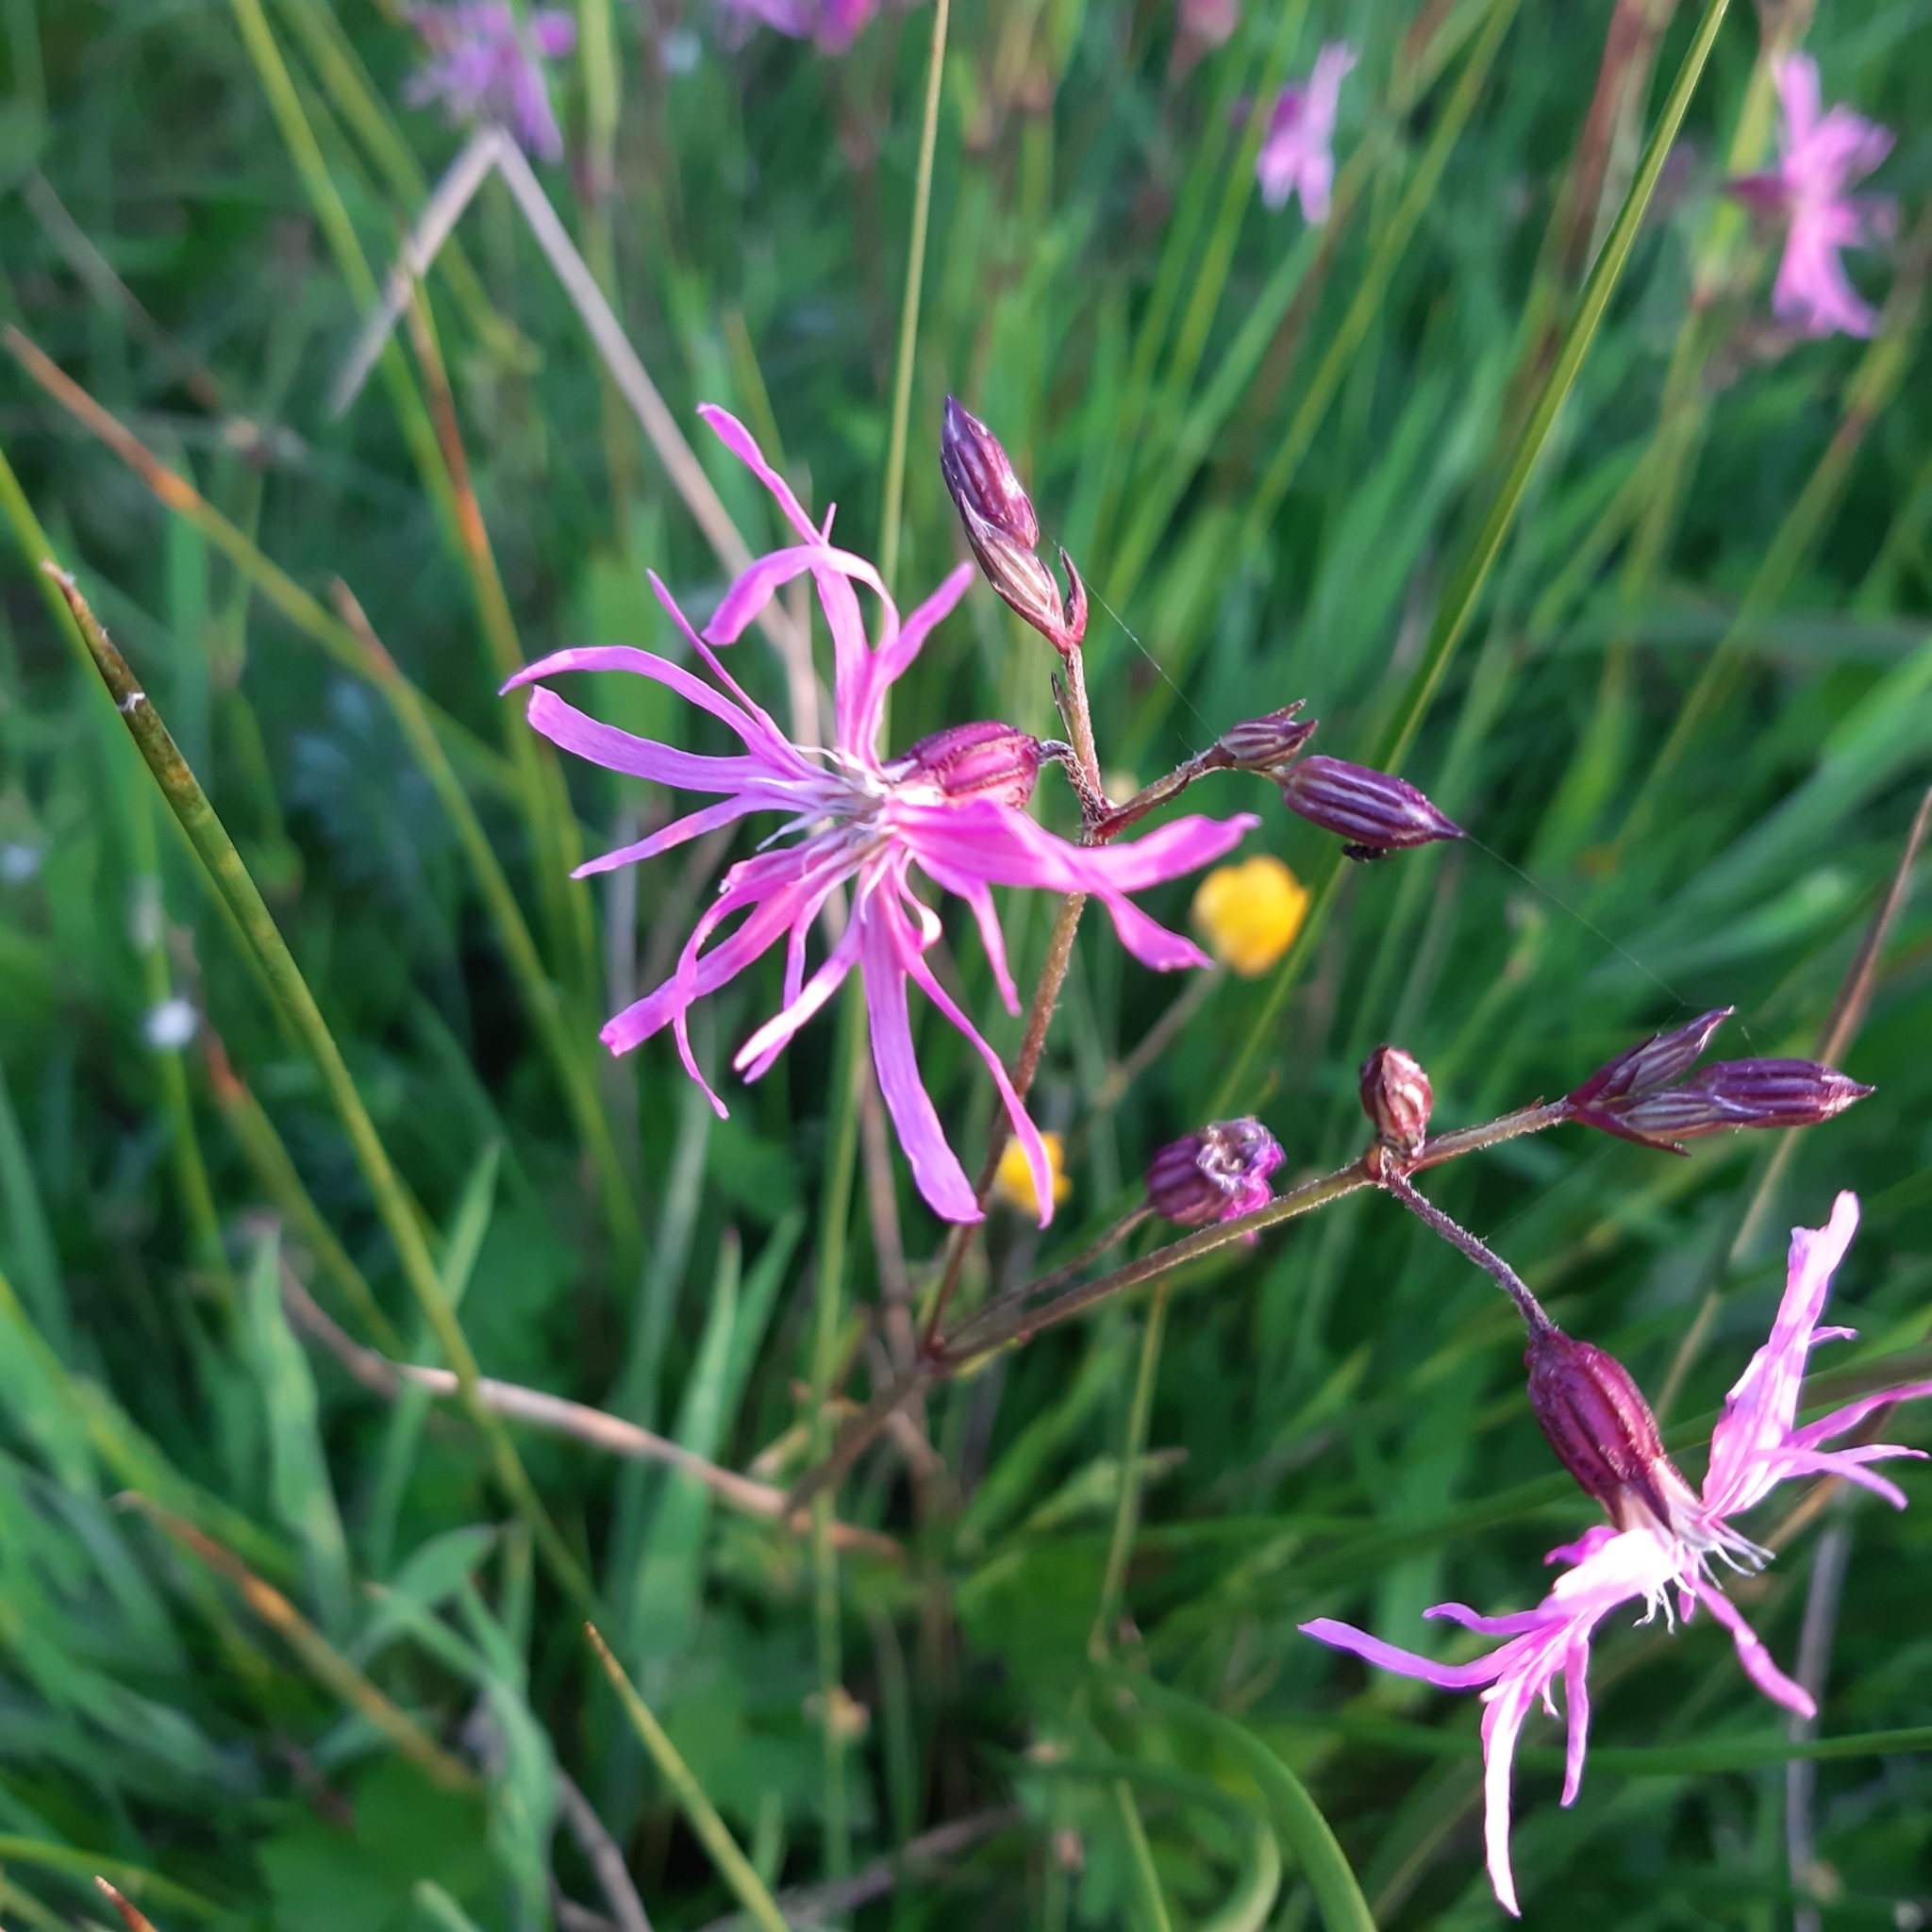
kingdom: Plantae
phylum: Tracheophyta
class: Magnoliopsida
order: Caryophyllales
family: Caryophyllaceae
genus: Silene
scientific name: Silene flos-cuculi
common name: Ragged-robin
